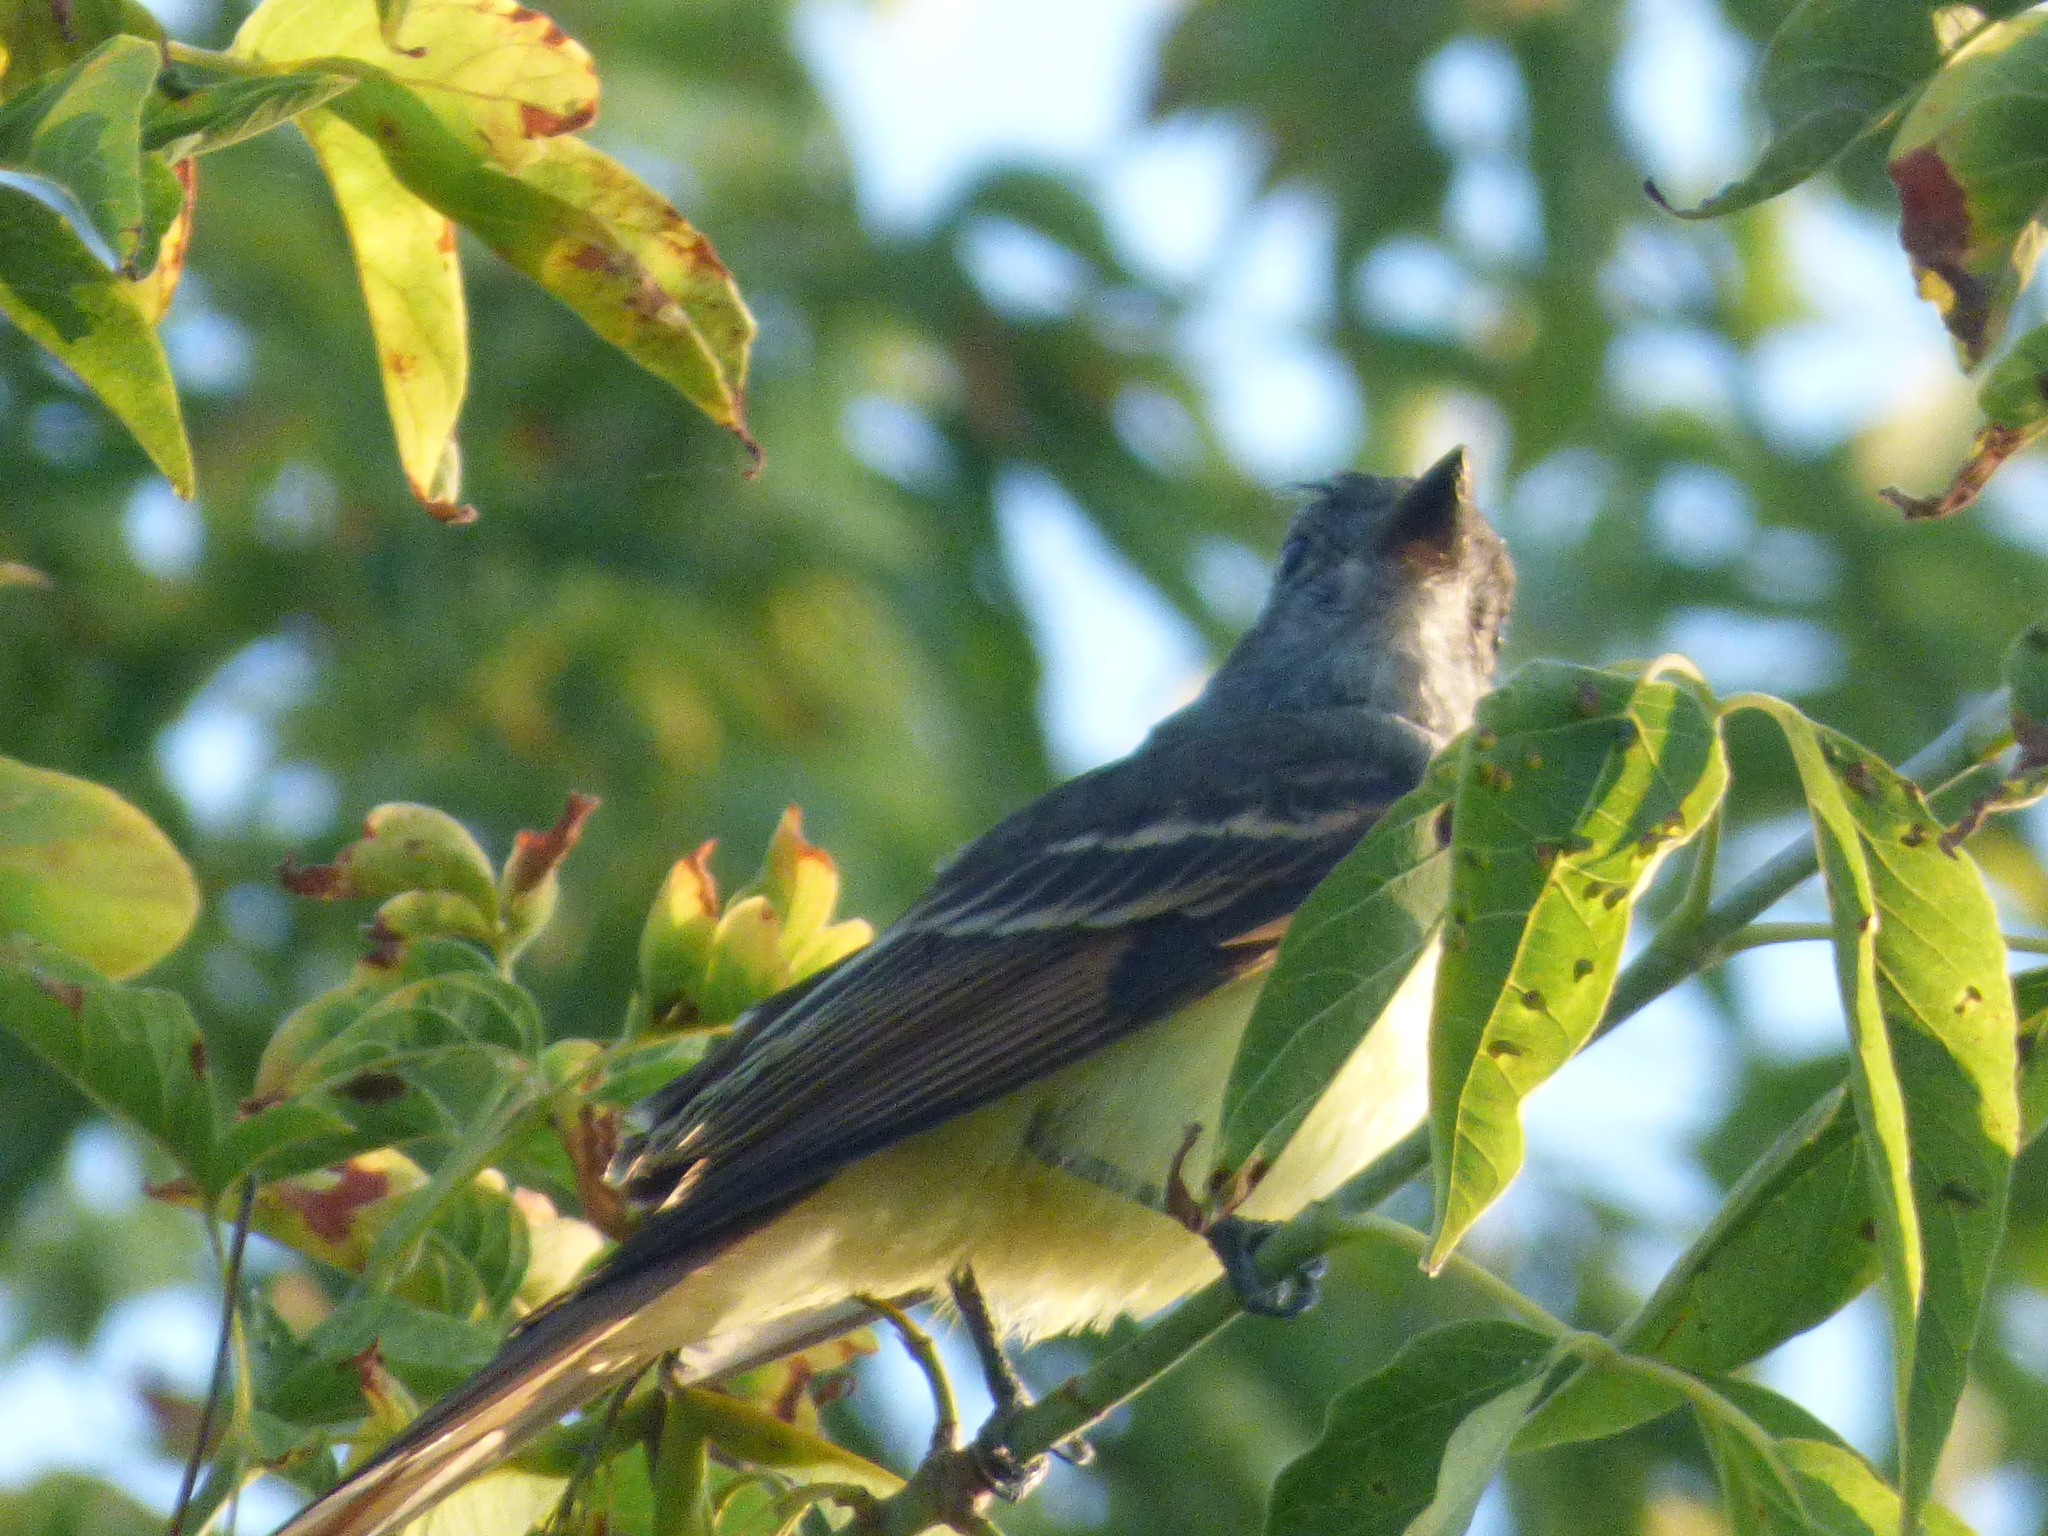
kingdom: Animalia
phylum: Chordata
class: Aves
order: Passeriformes
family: Tyrannidae
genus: Myiarchus
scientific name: Myiarchus crinitus
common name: Great crested flycatcher
